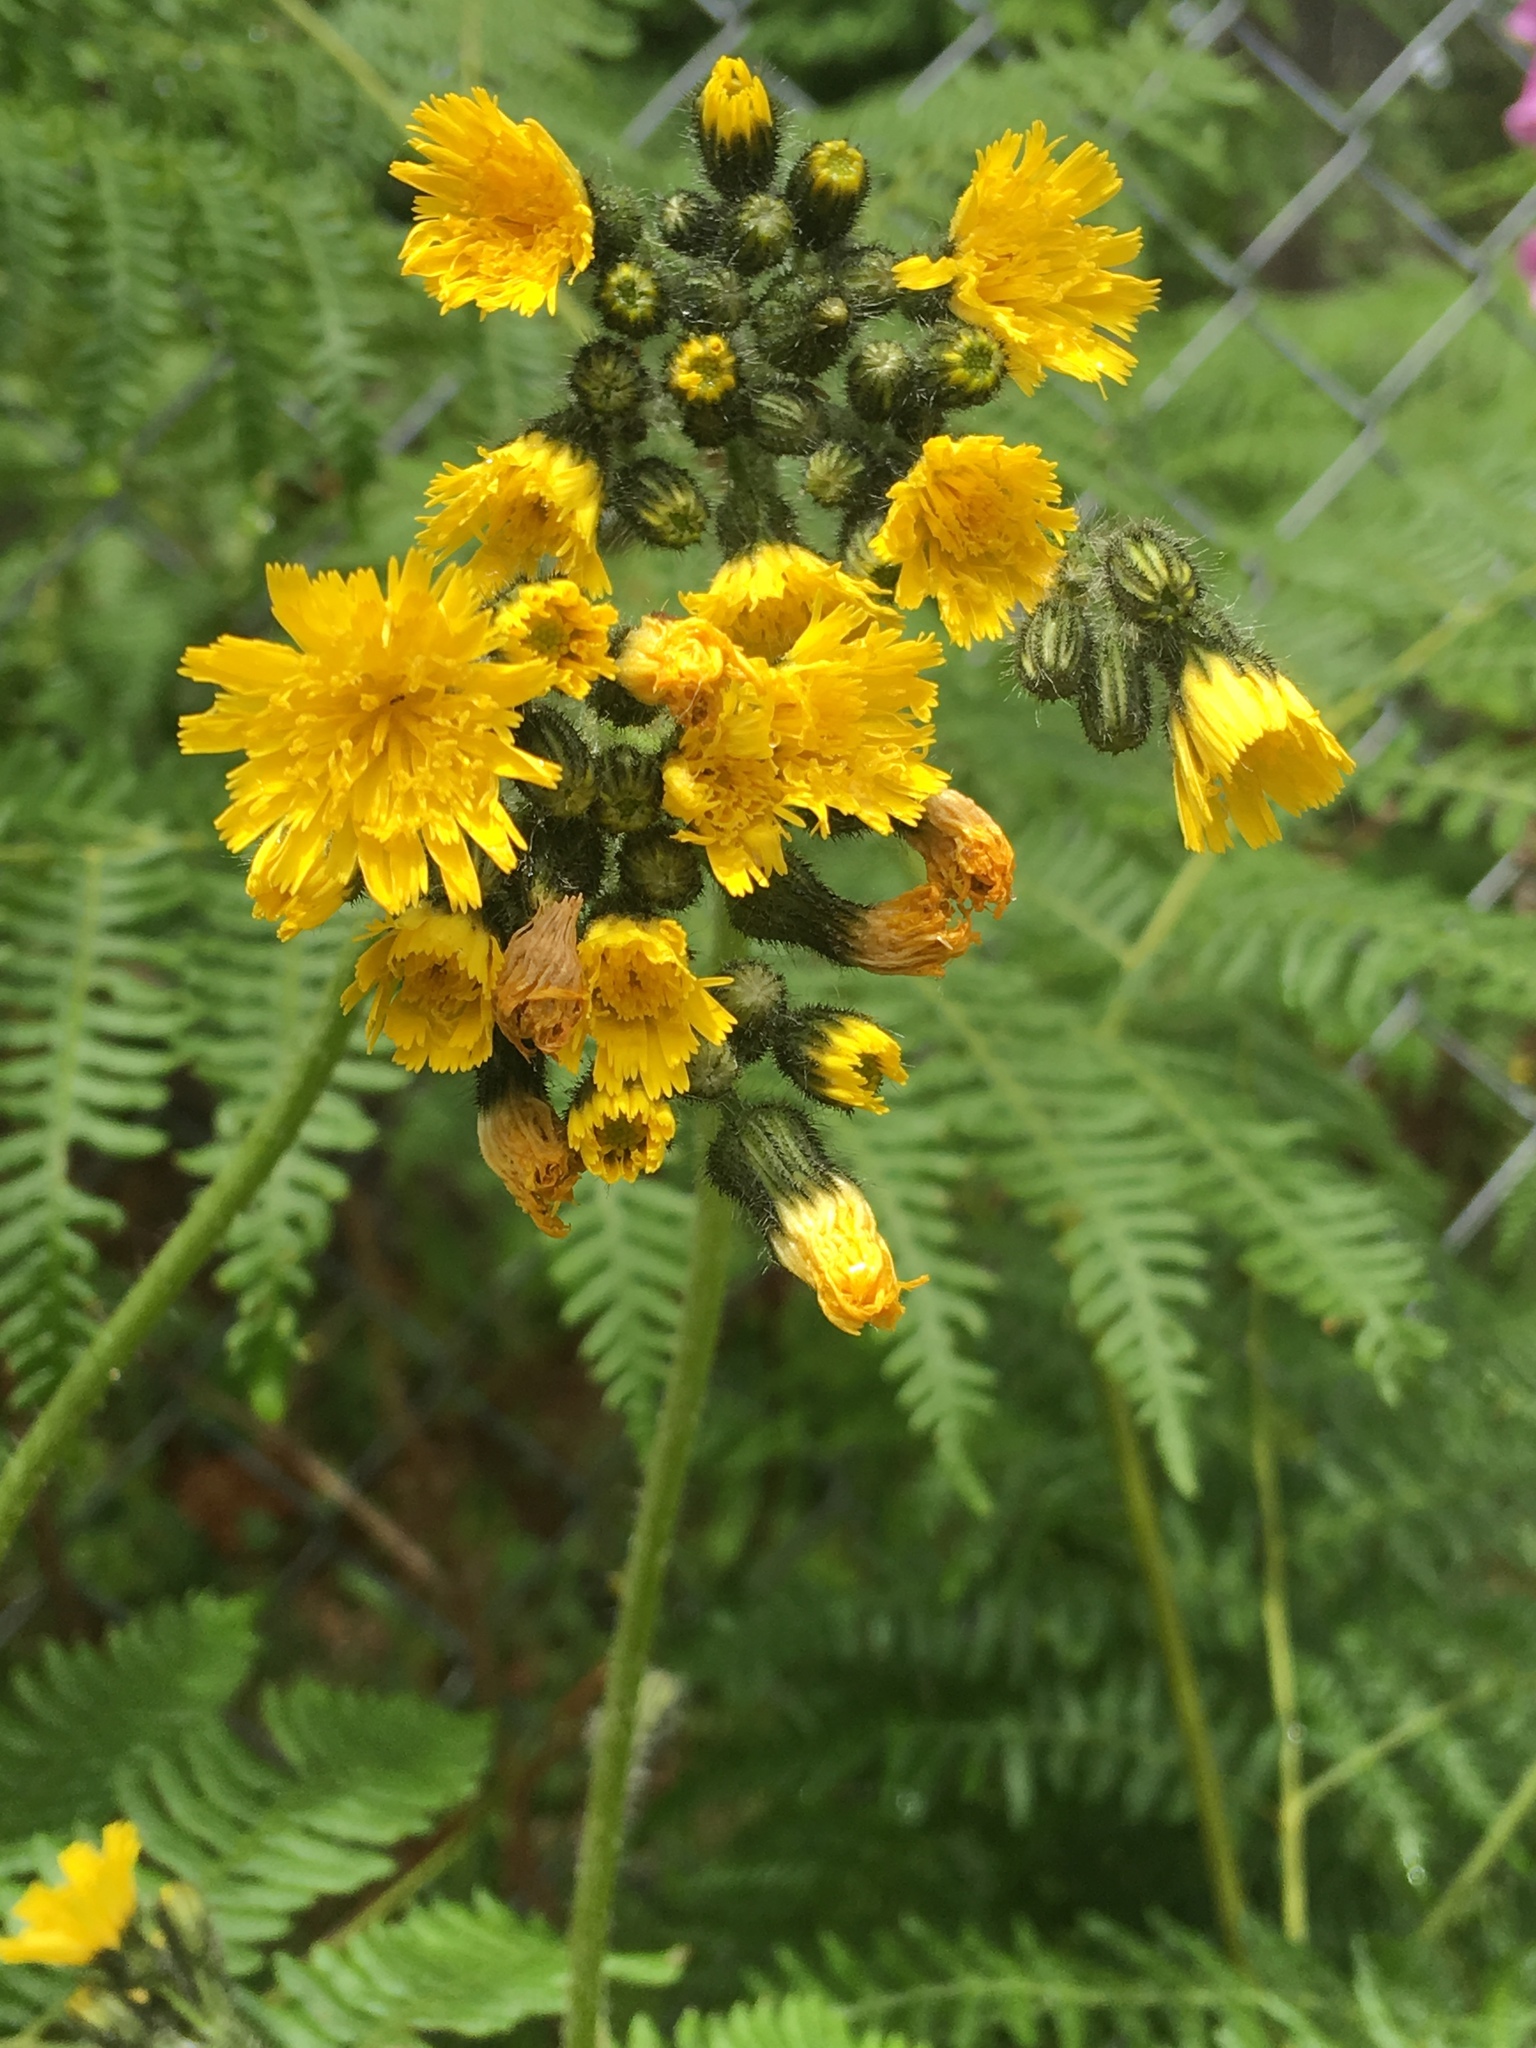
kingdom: Plantae
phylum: Tracheophyta
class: Magnoliopsida
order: Asterales
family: Asteraceae
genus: Pilosella
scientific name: Pilosella caespitosa
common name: Yellow fox-and-cubs
